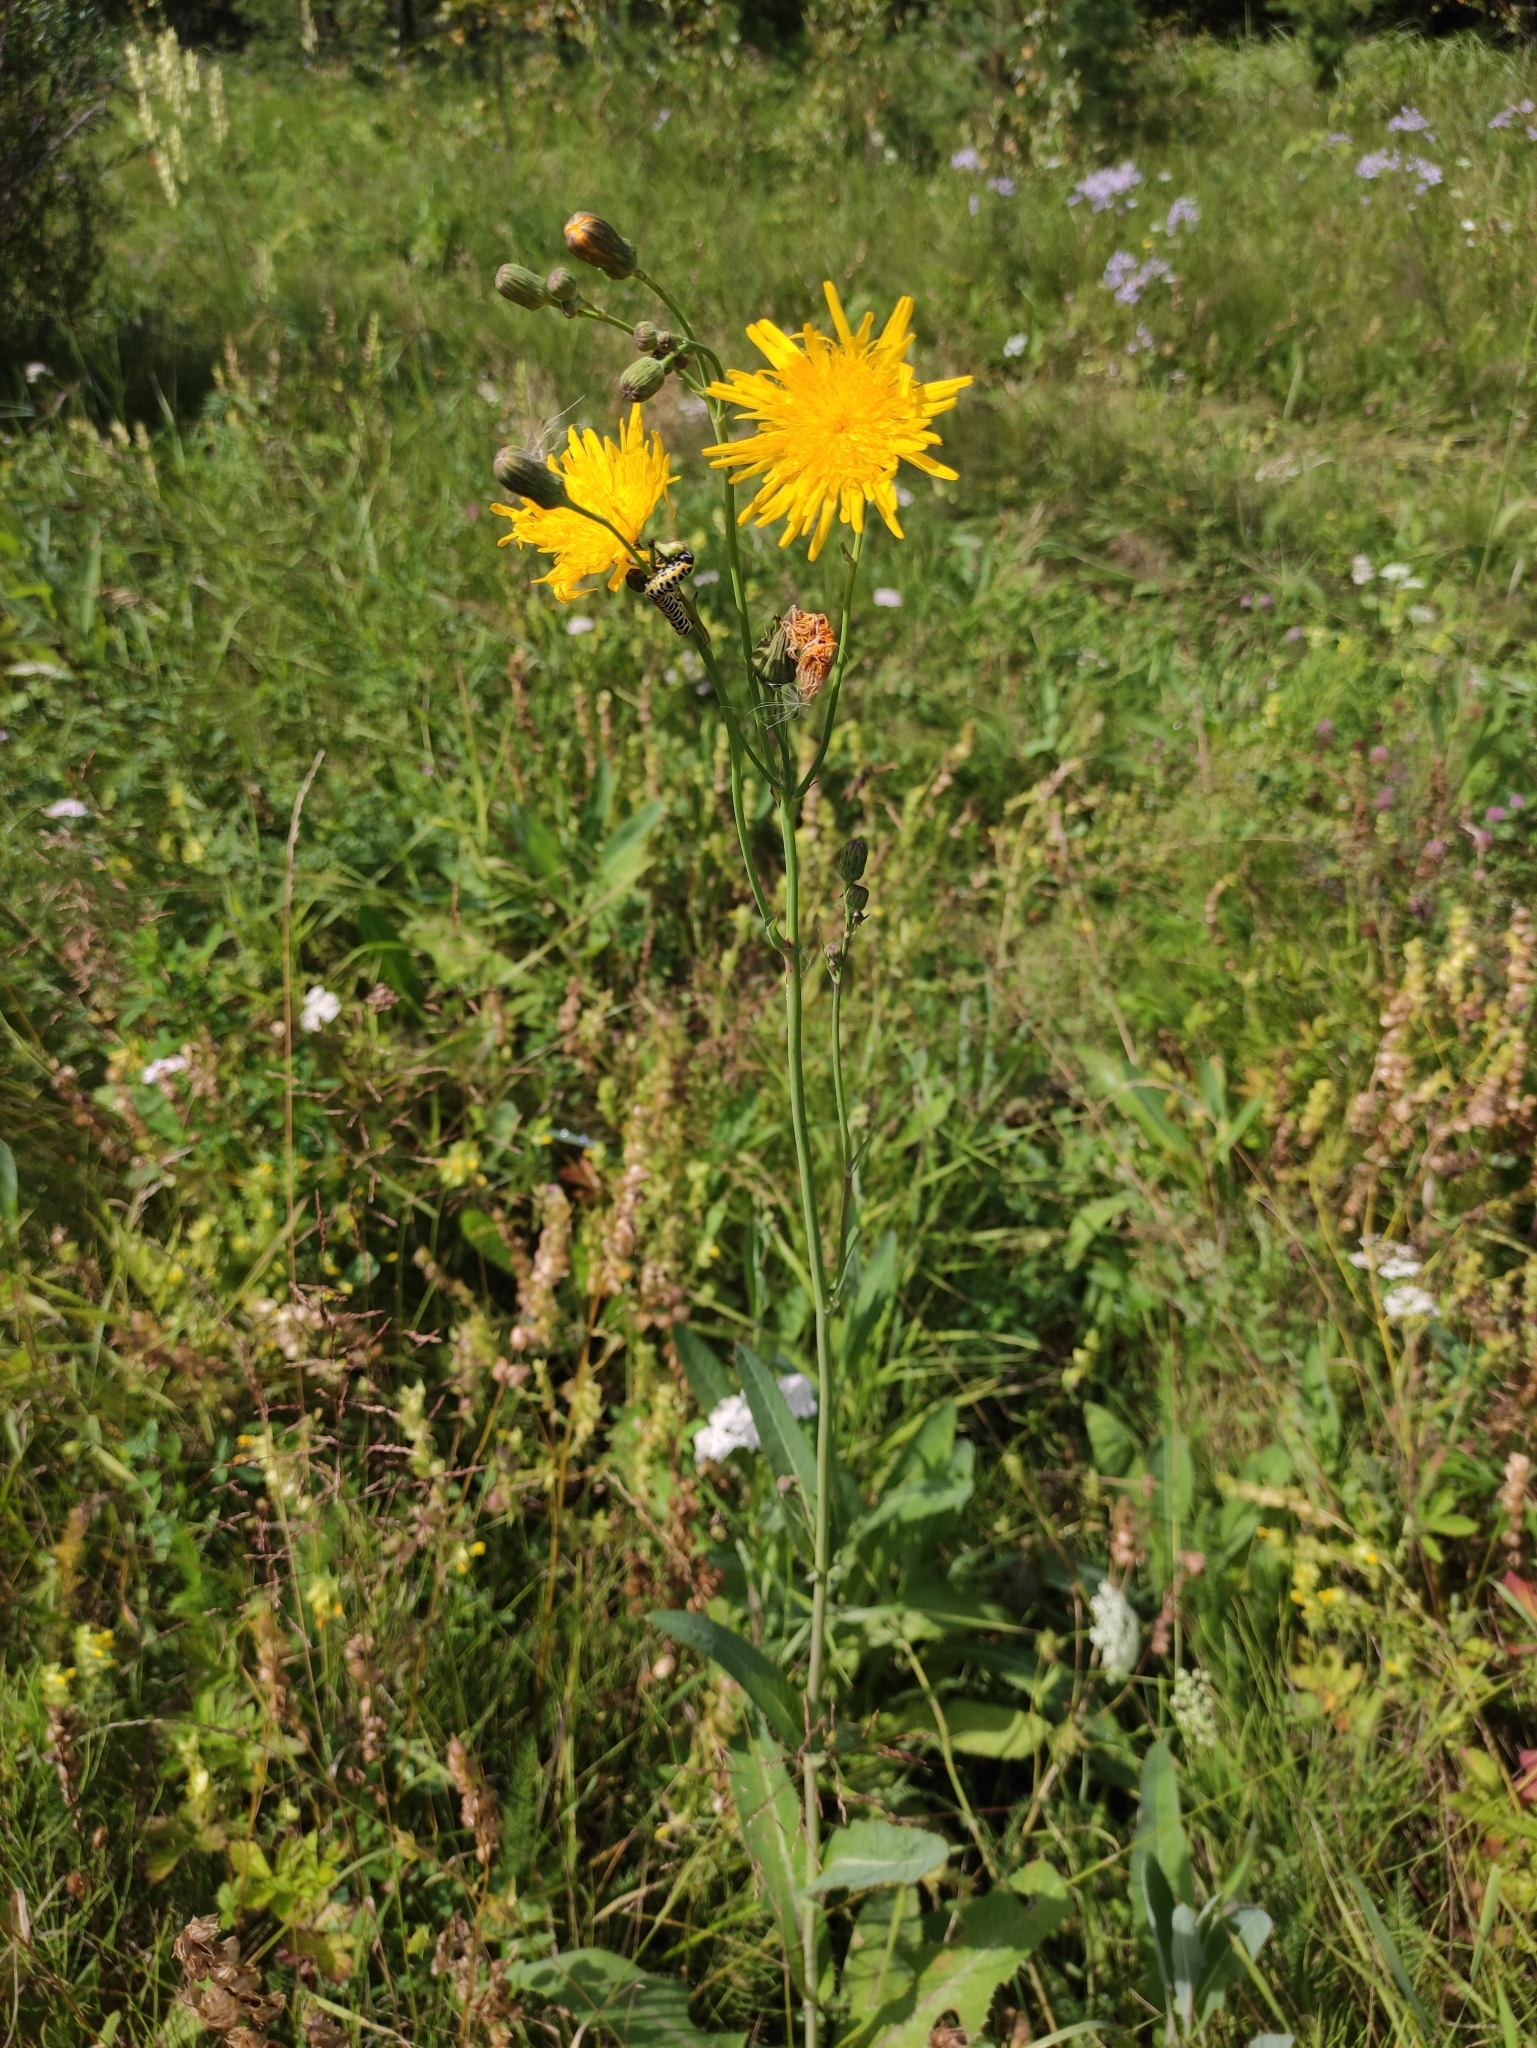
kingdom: Plantae
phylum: Tracheophyta
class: Magnoliopsida
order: Asterales
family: Asteraceae
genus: Sonchus
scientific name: Sonchus arvensis
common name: Perennial sow-thistle
